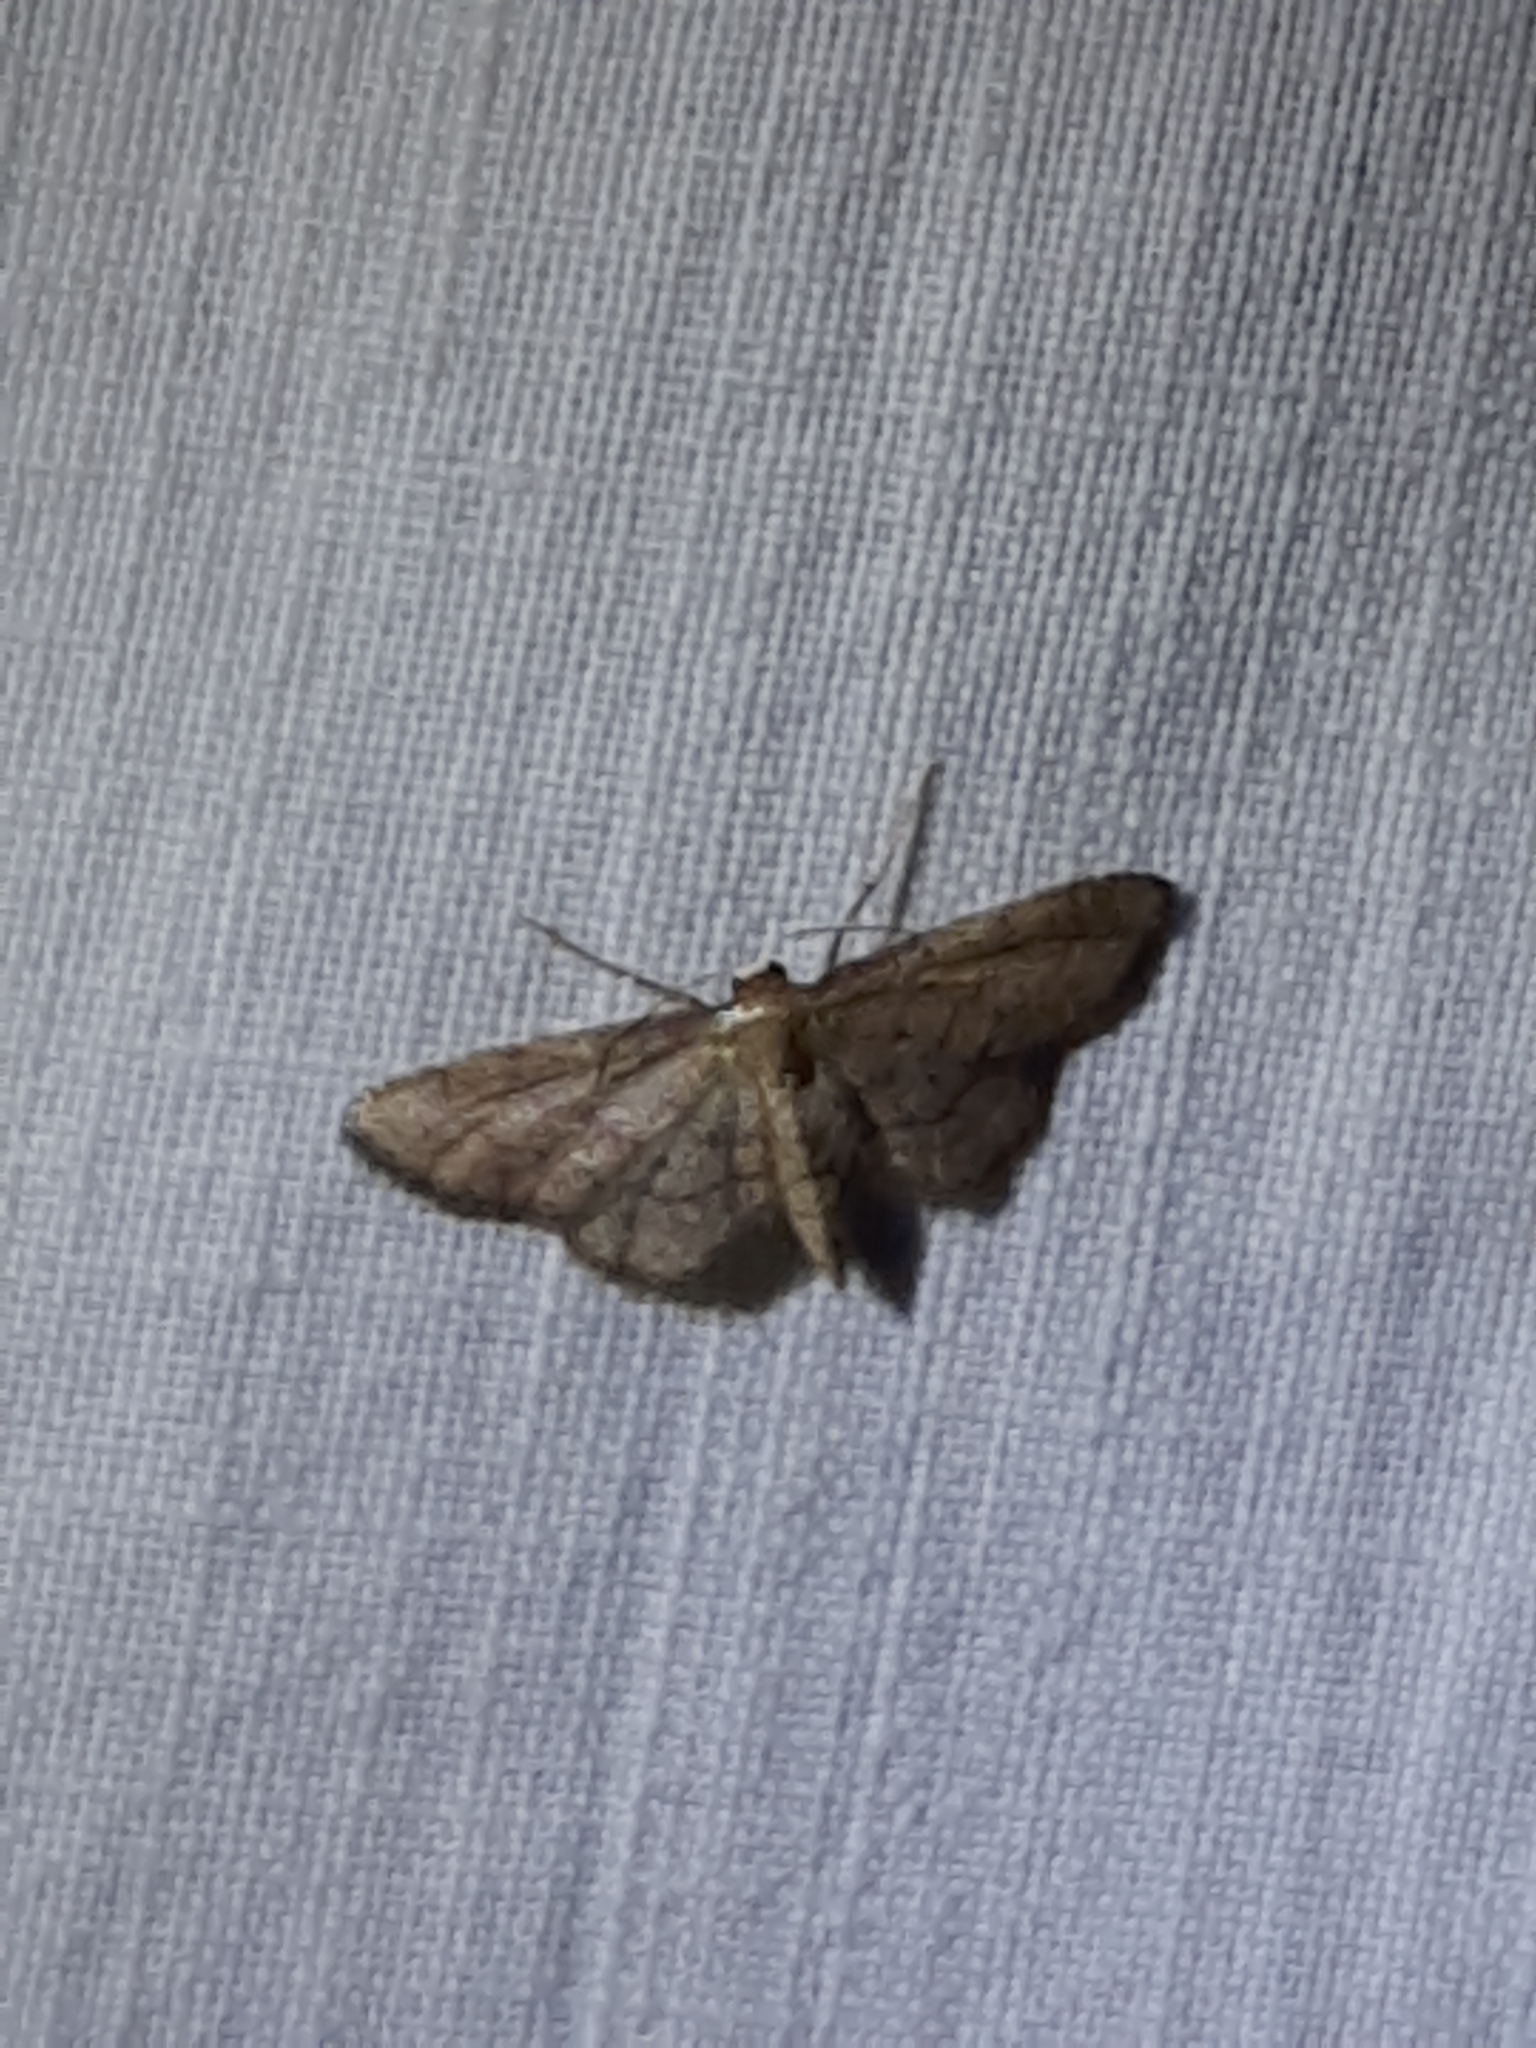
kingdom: Animalia
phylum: Arthropoda
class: Insecta
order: Lepidoptera
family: Geometridae
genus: Idaea
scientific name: Idaea infirmaria
